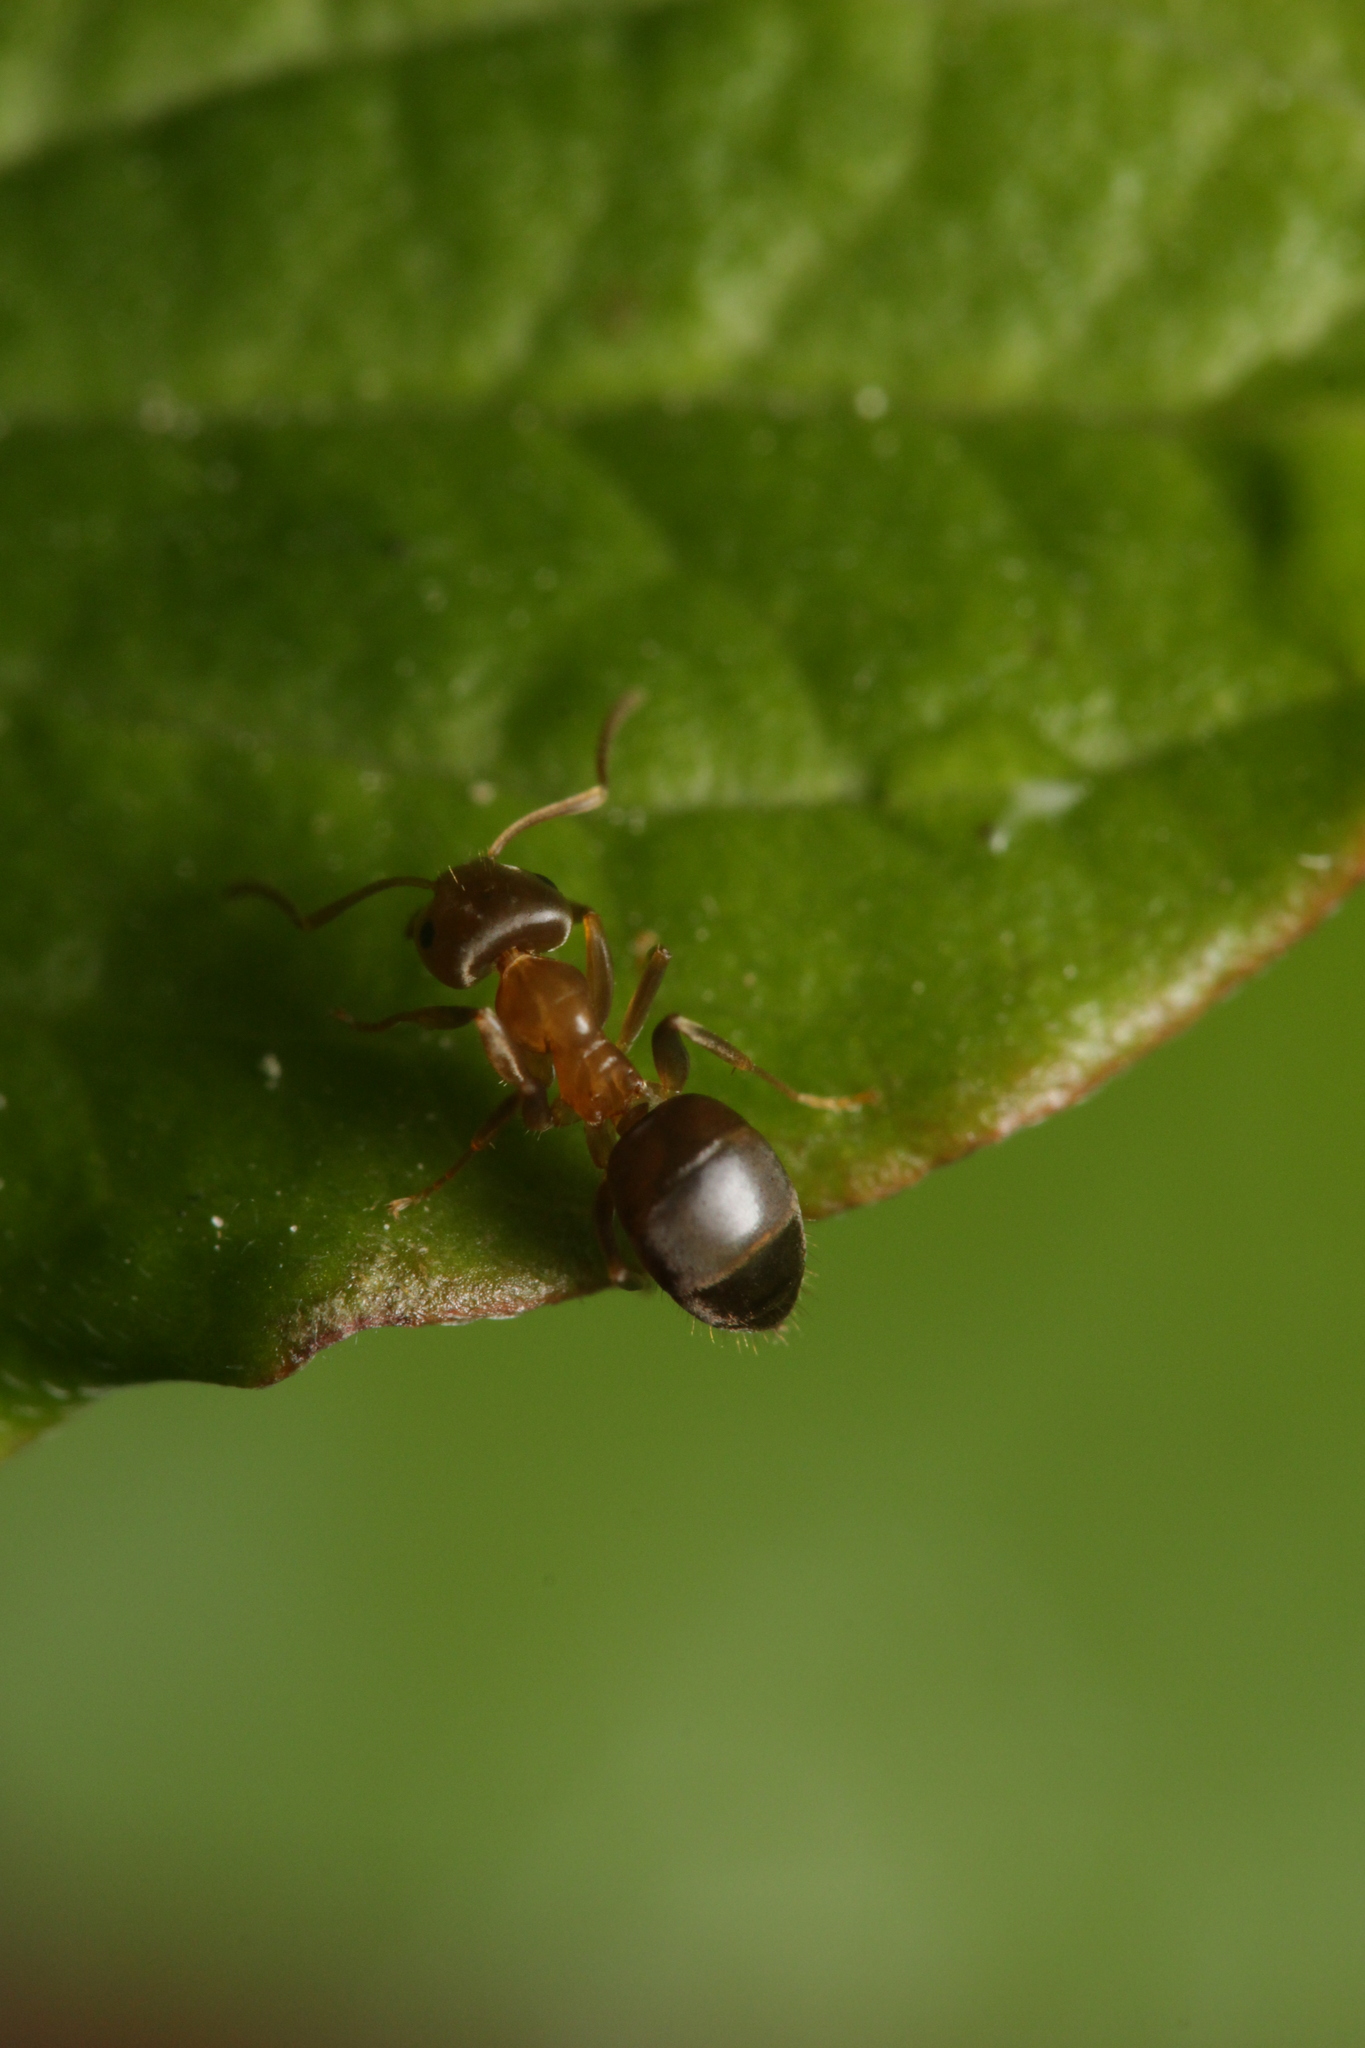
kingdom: Animalia
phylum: Arthropoda
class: Insecta
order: Hymenoptera
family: Formicidae
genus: Lasius
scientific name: Lasius brunneus
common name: Brown ant
